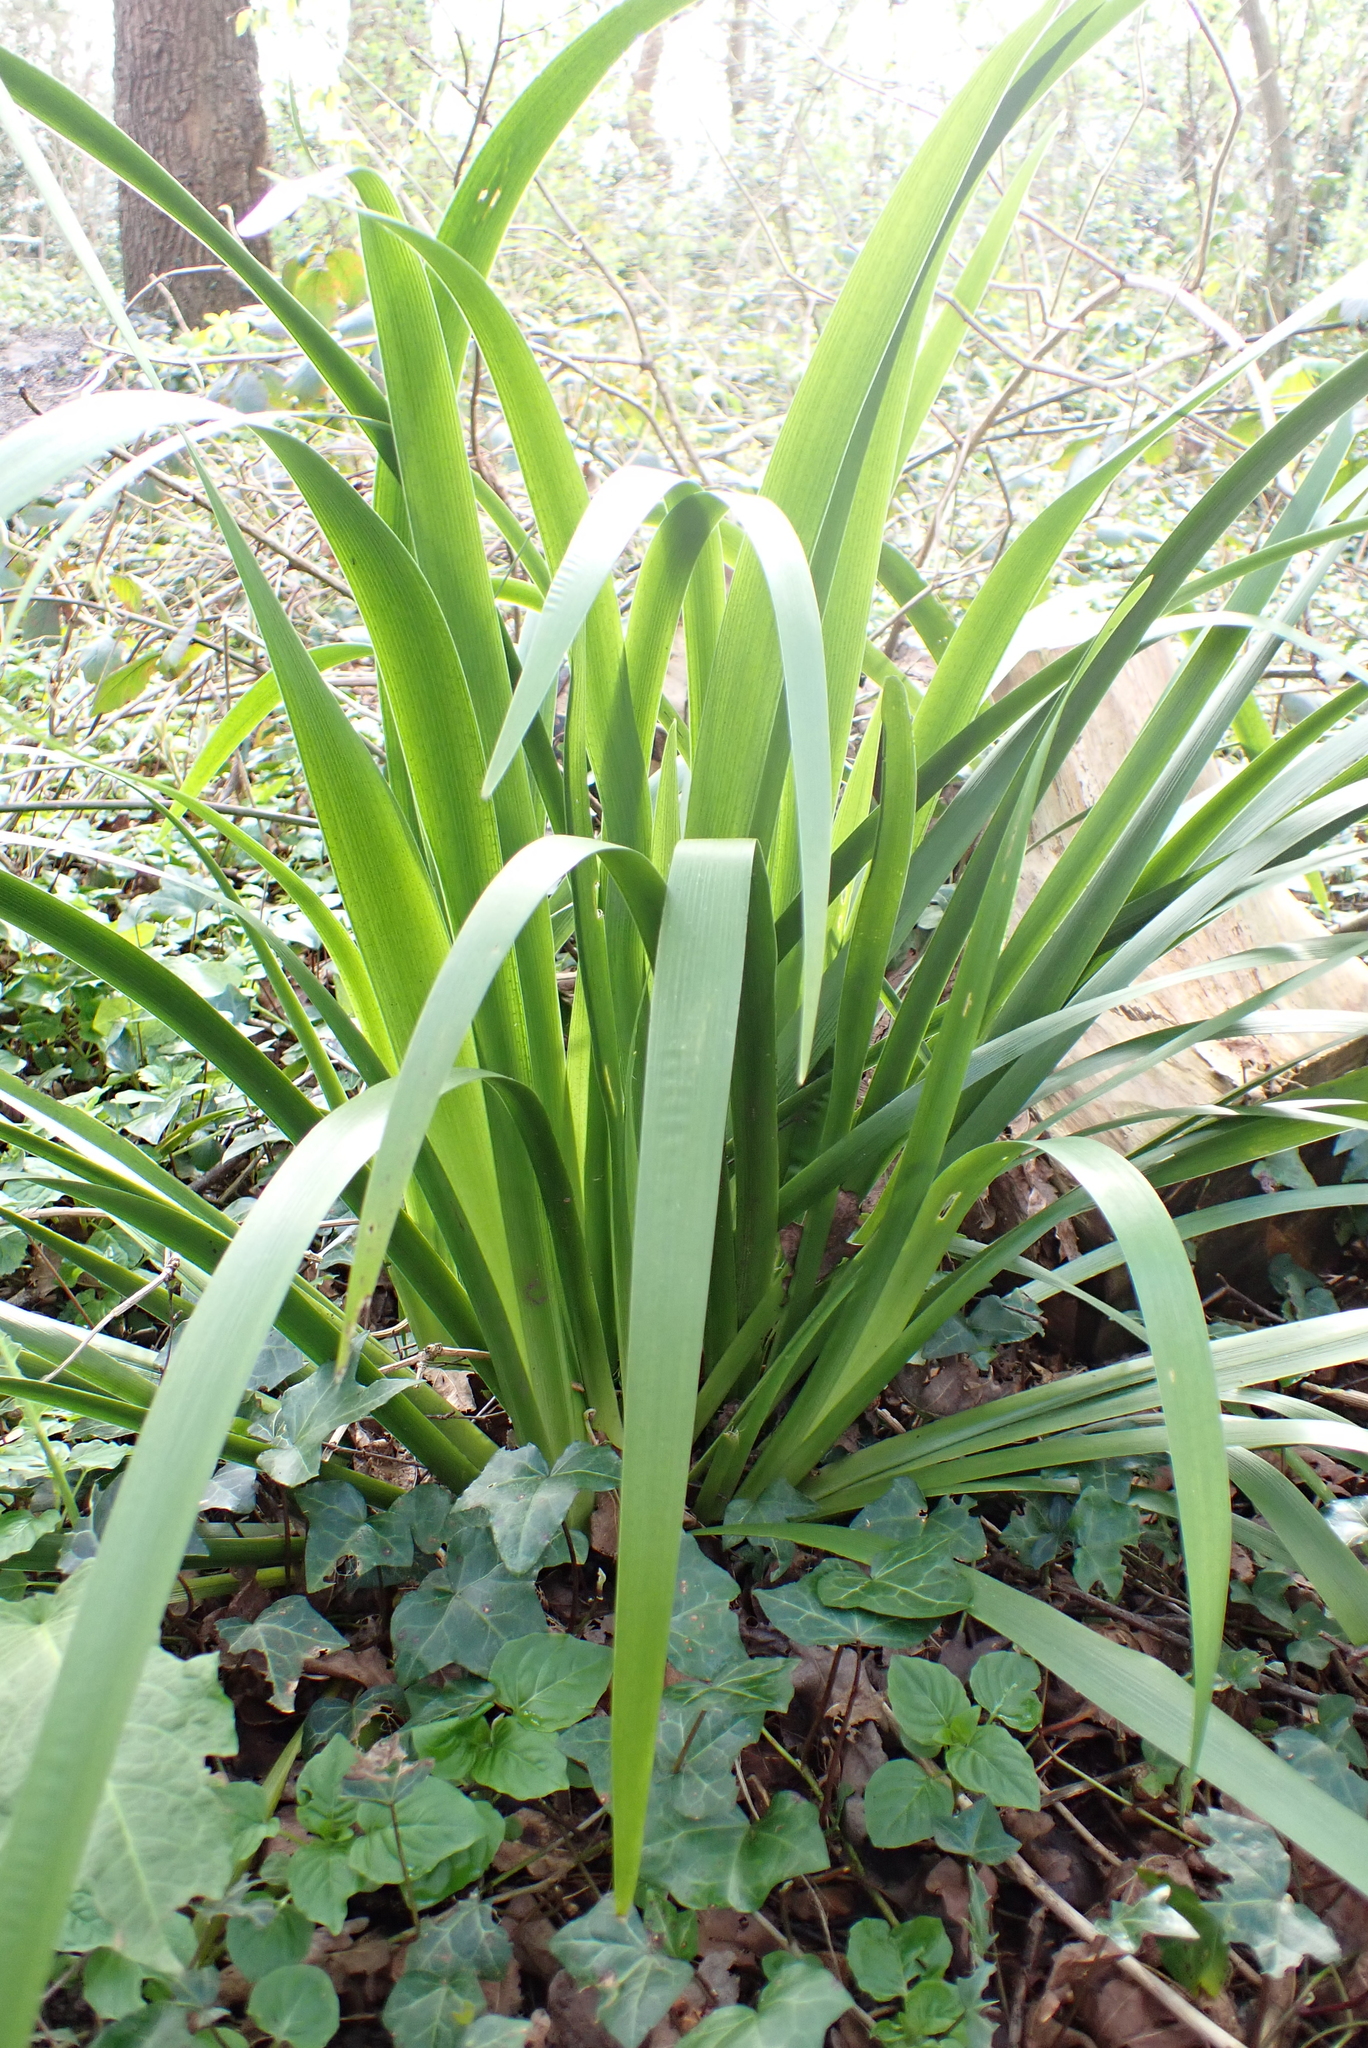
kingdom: Plantae
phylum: Tracheophyta
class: Liliopsida
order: Asparagales
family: Iridaceae
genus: Iris
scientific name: Iris foetidissima
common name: Stinking iris
